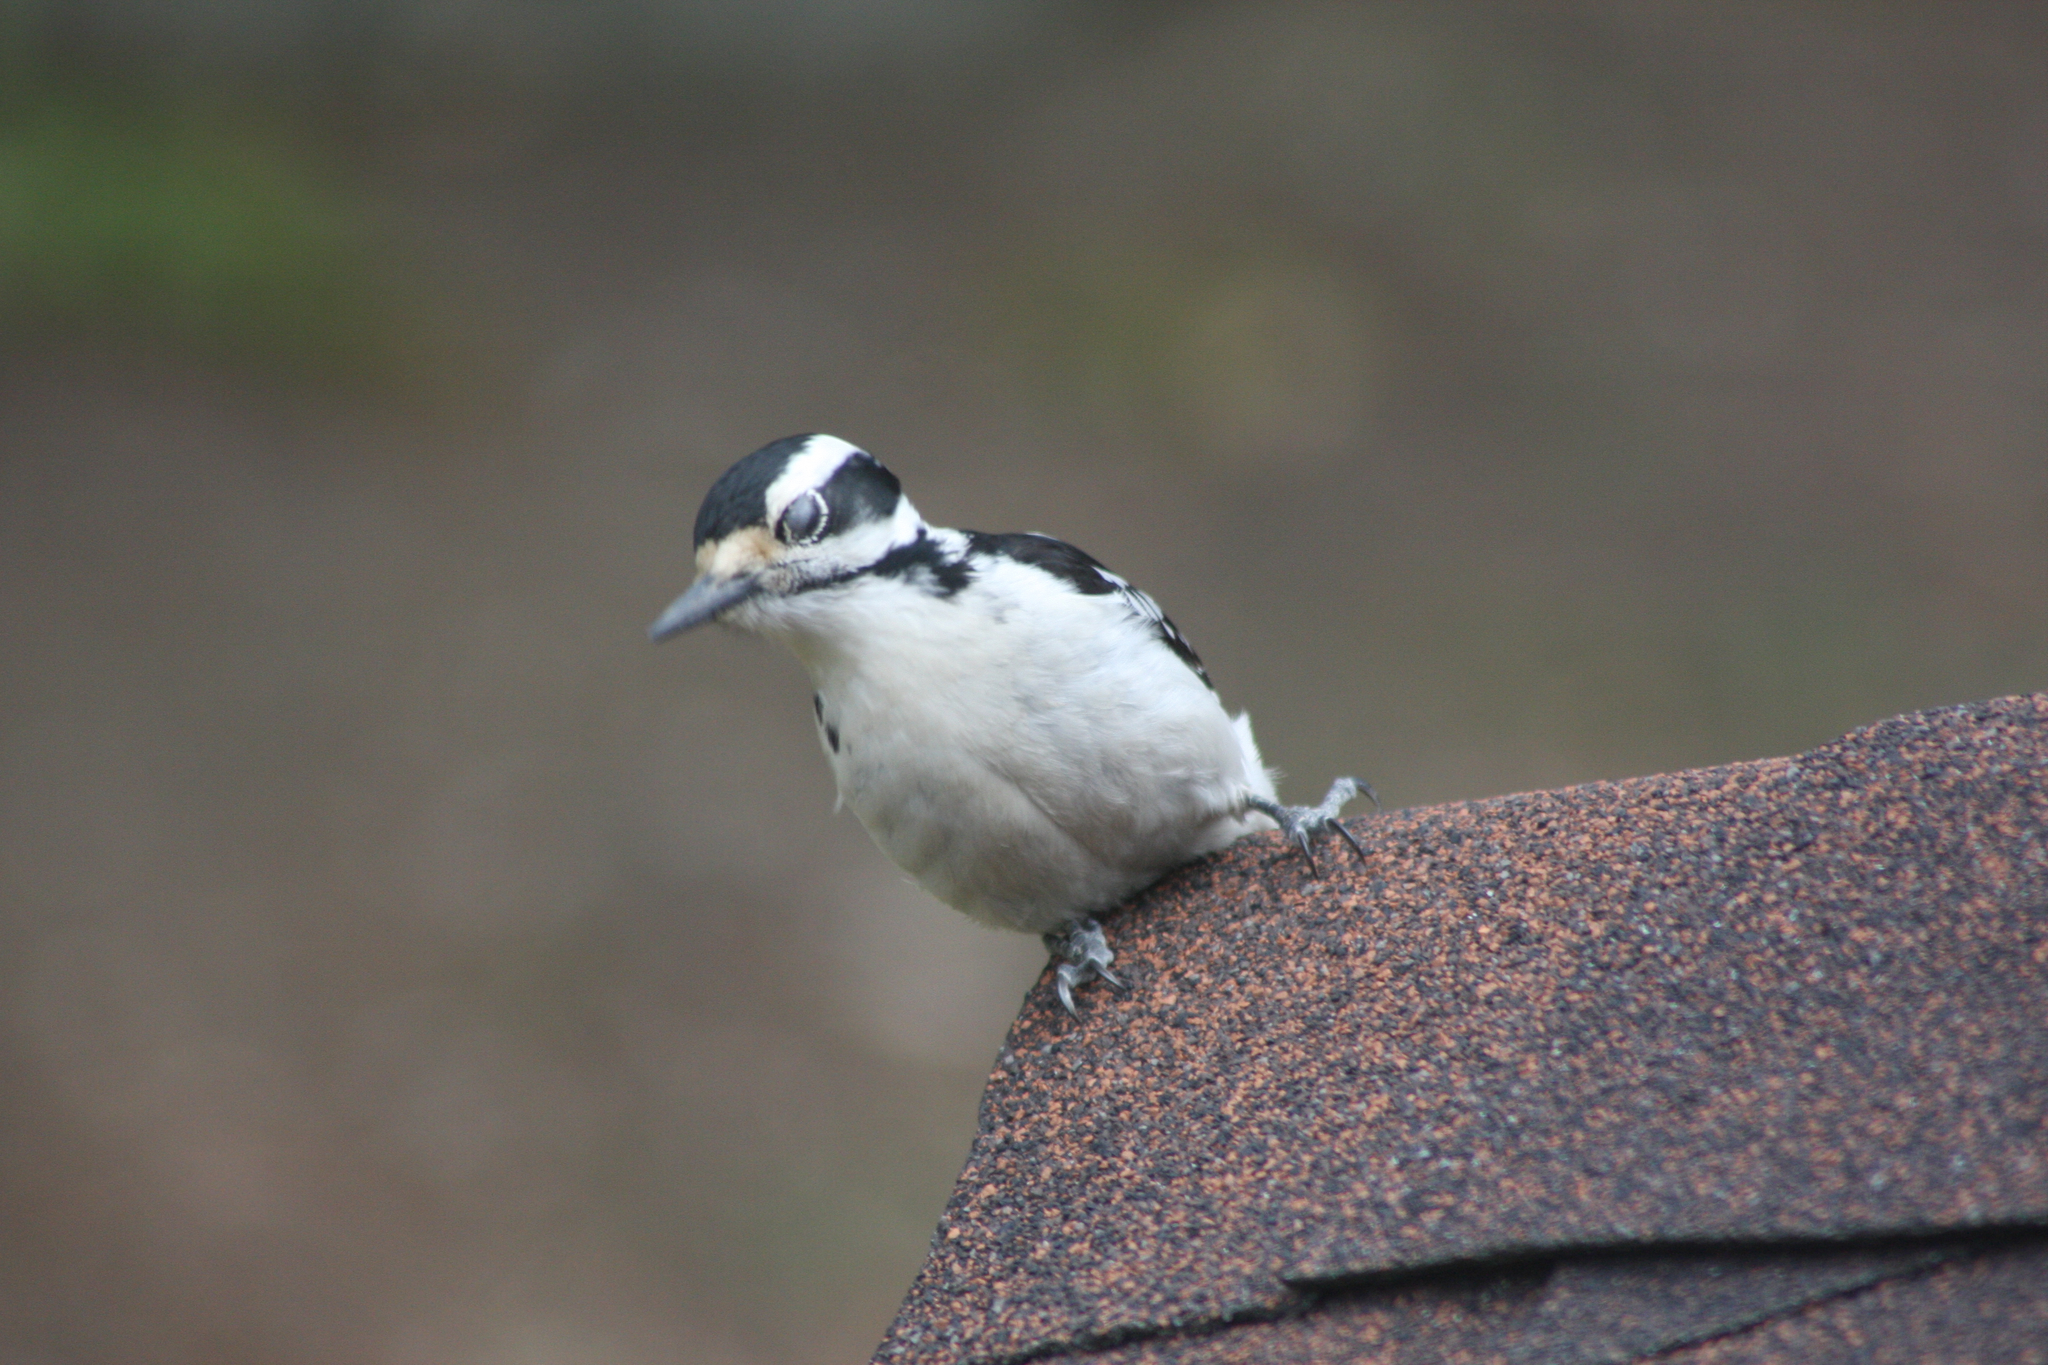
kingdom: Animalia
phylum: Chordata
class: Aves
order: Piciformes
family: Picidae
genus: Leuconotopicus
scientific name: Leuconotopicus villosus
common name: Hairy woodpecker
